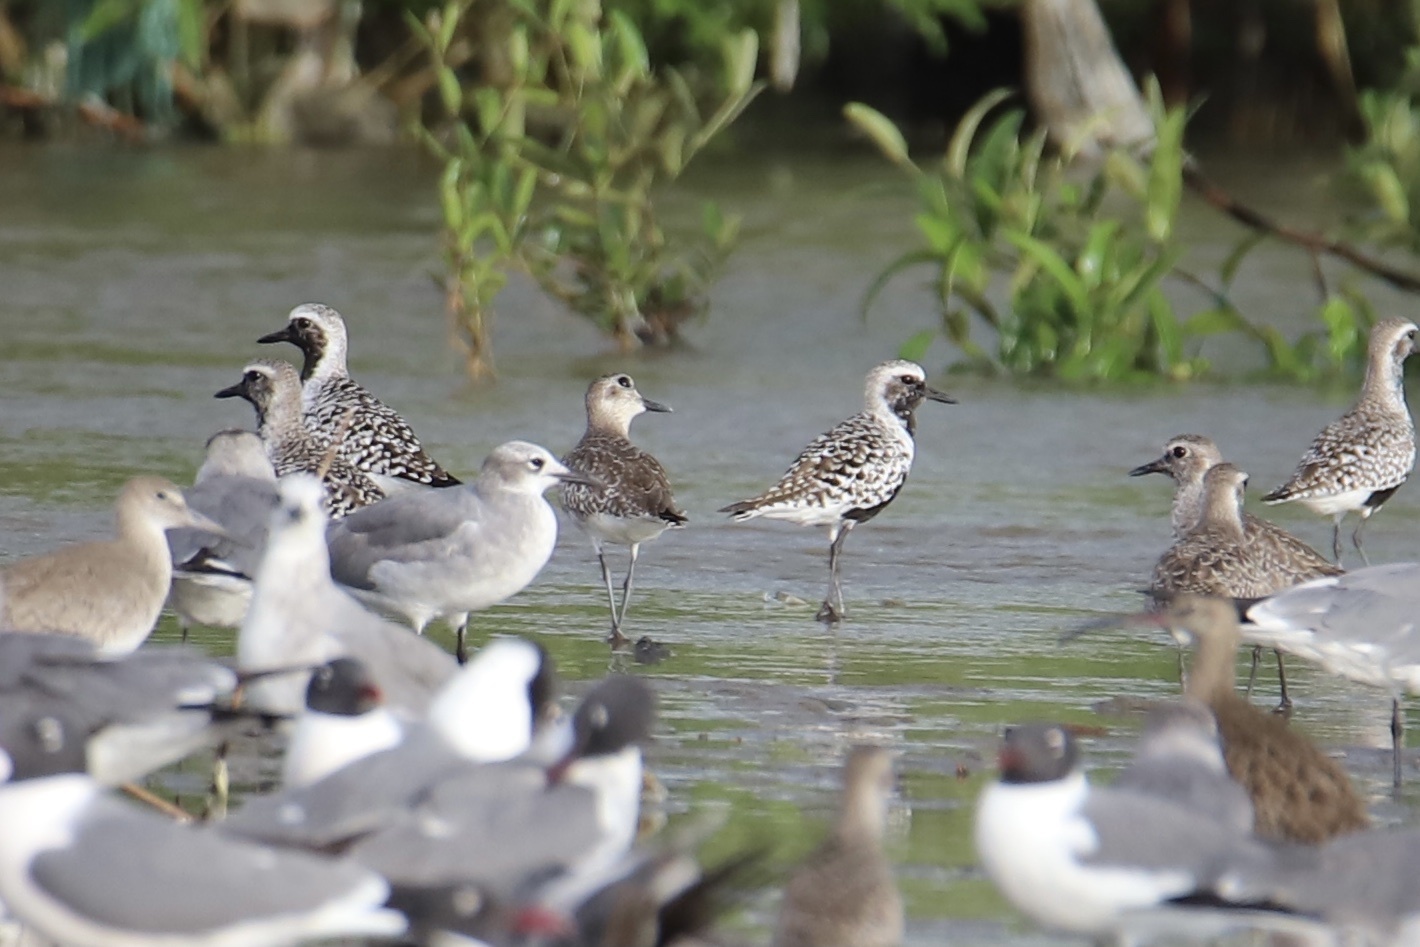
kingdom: Animalia
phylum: Chordata
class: Aves
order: Charadriiformes
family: Charadriidae
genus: Pluvialis
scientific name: Pluvialis squatarola
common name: Grey plover
